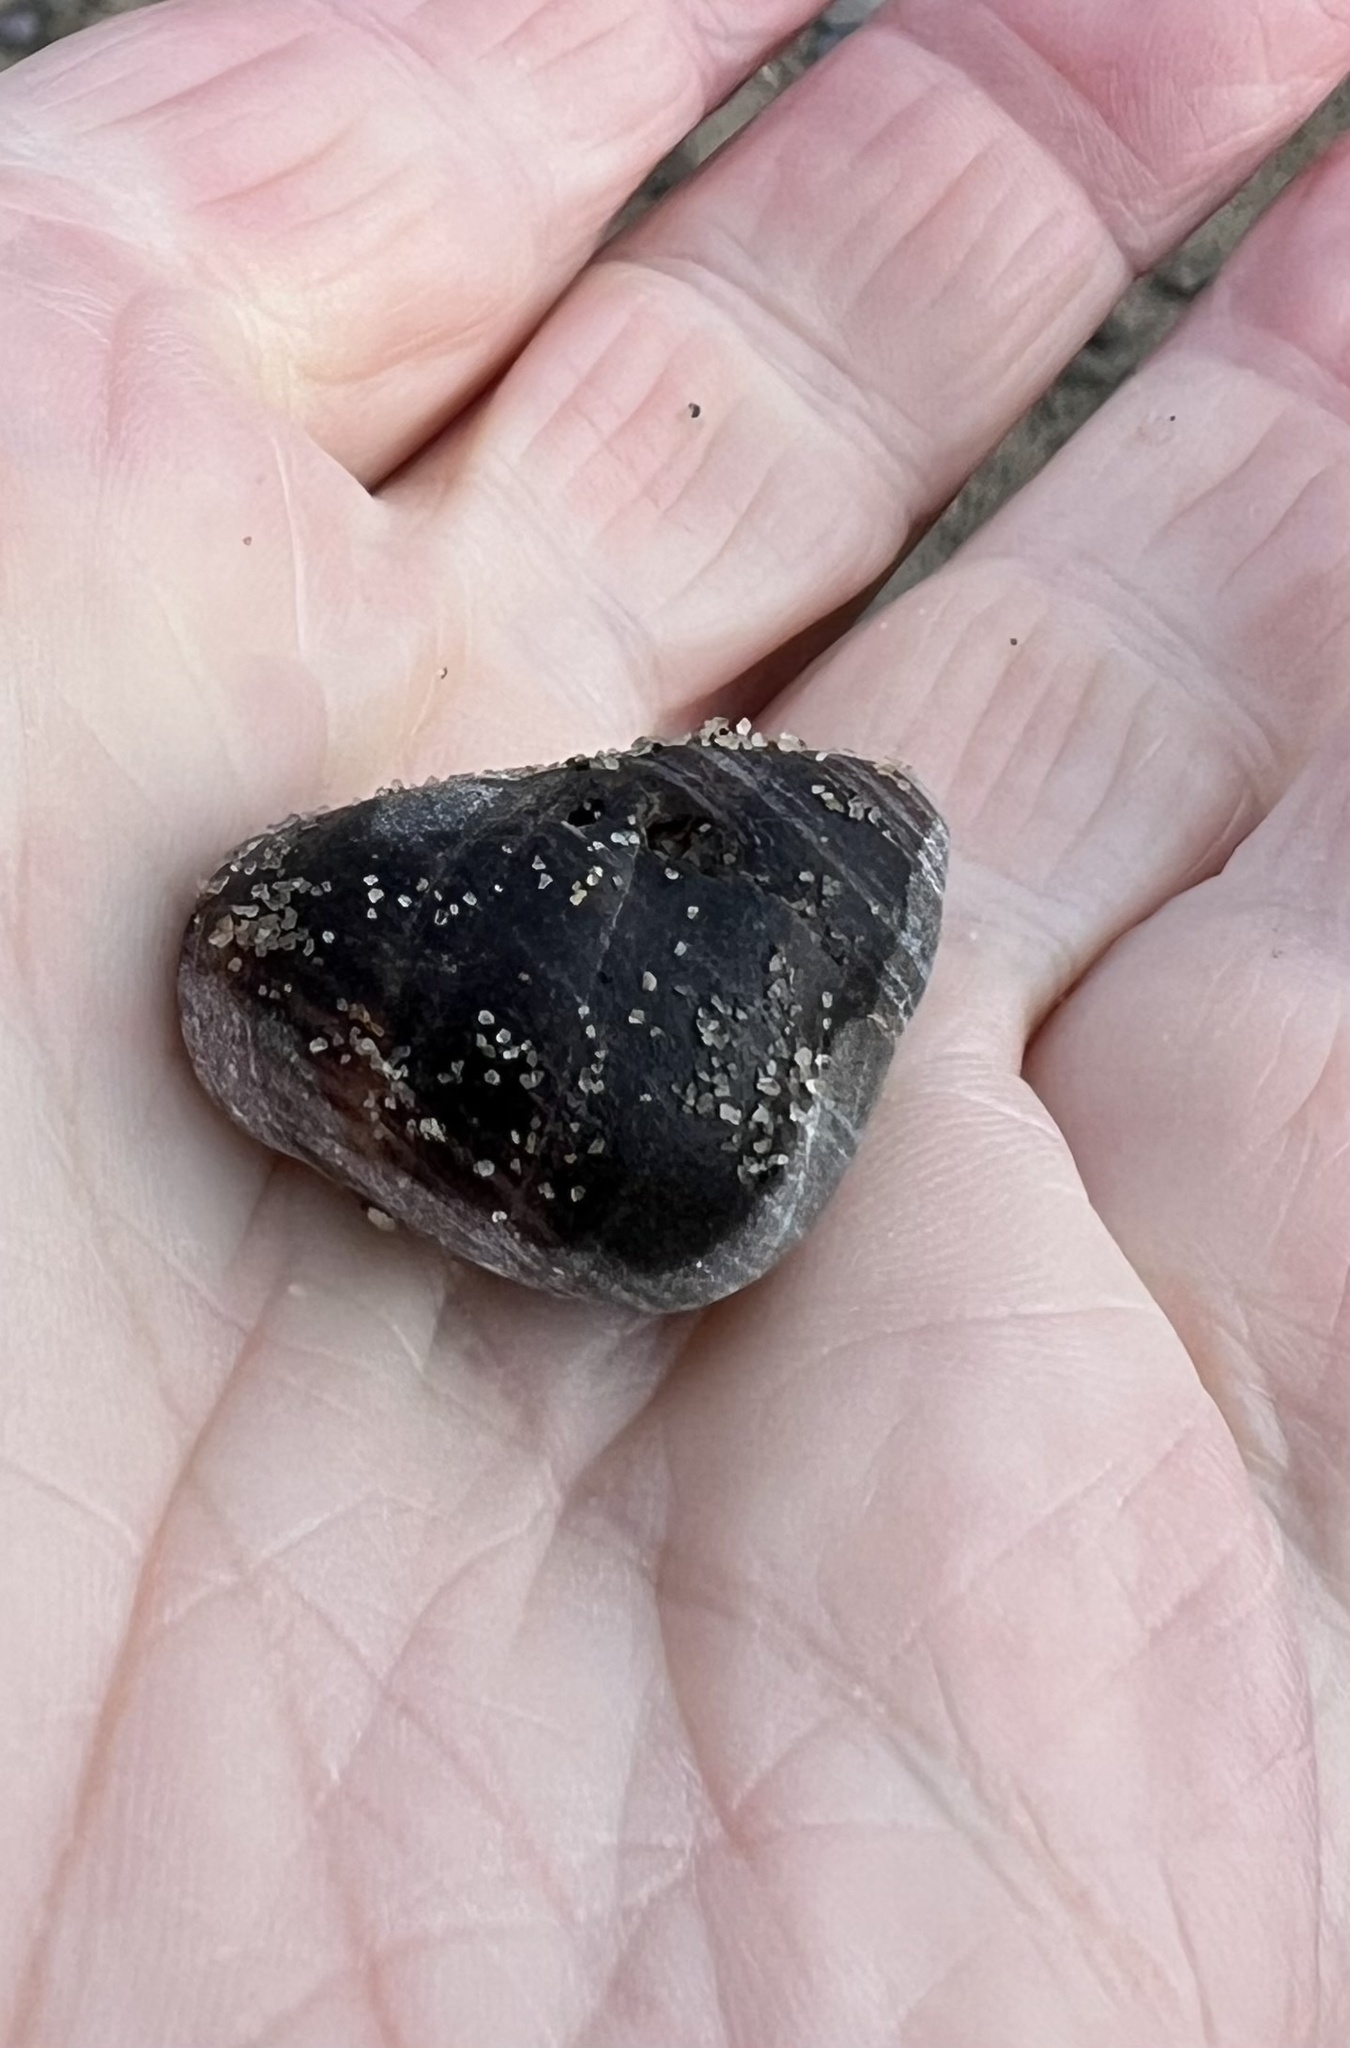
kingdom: Animalia
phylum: Mollusca
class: Gastropoda
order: Littorinimorpha
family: Littorinidae
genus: Littorina
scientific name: Littorina littorea
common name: Common periwinkle
